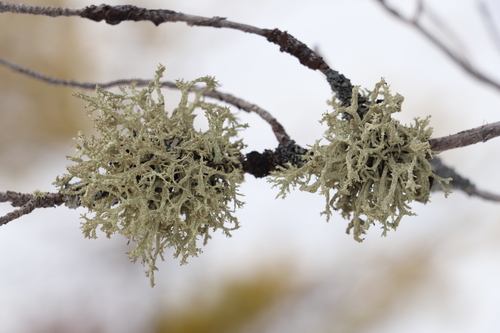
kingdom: Fungi
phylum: Ascomycota
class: Lecanoromycetes
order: Lecanorales
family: Parmeliaceae
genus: Evernia
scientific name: Evernia mesomorpha
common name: Boreal oak moss lichen
